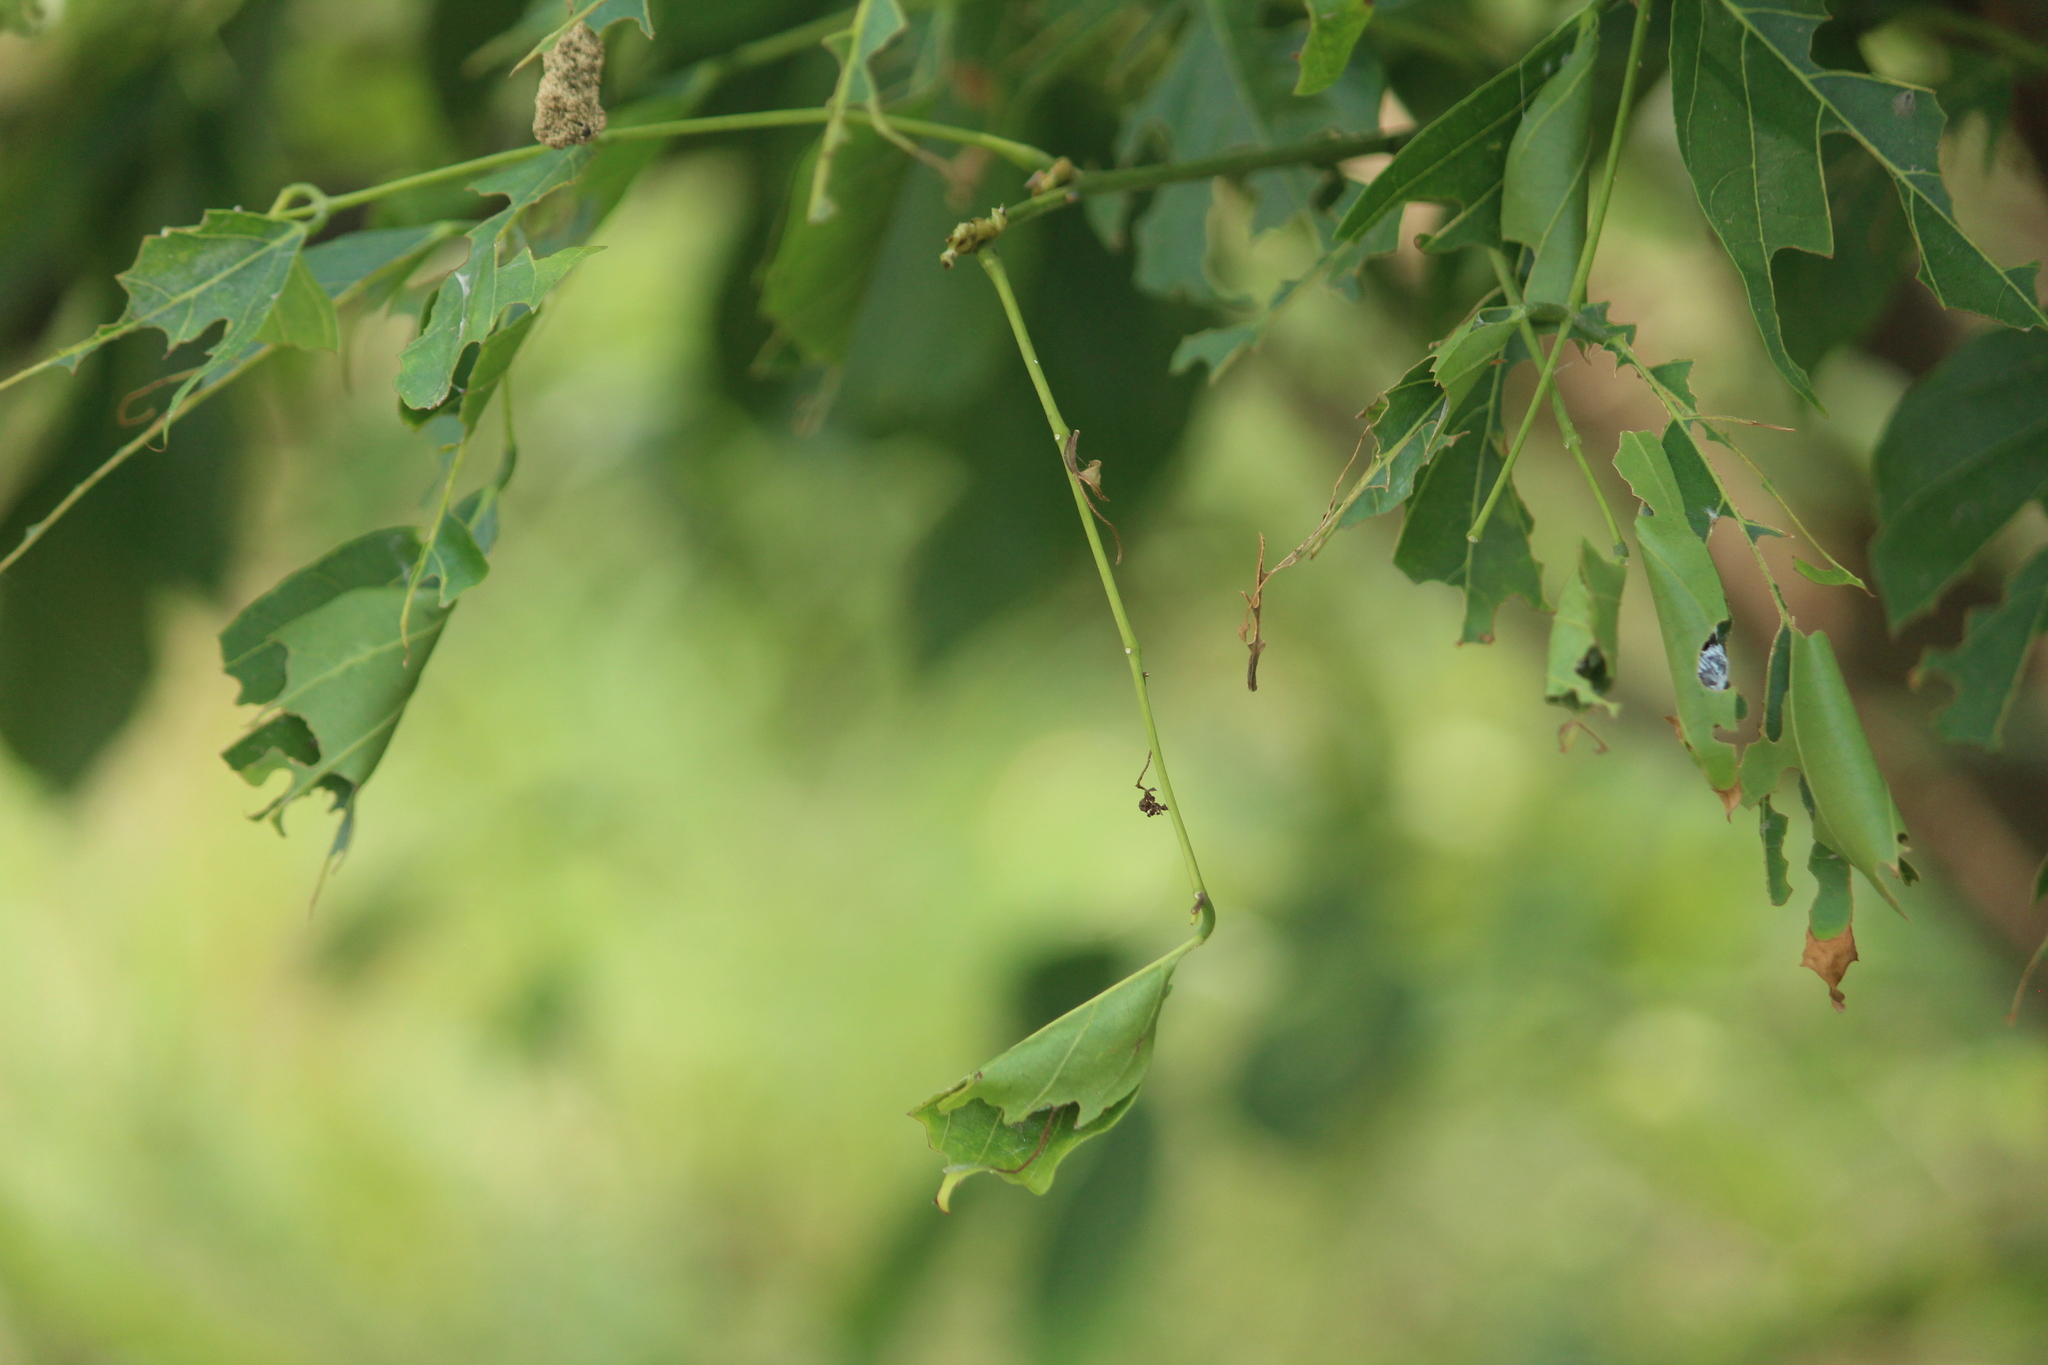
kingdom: Animalia
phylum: Arthropoda
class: Insecta
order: Lepidoptera
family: Hesperiidae
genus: Hasora
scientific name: Hasora chromus
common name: Common banded awl
